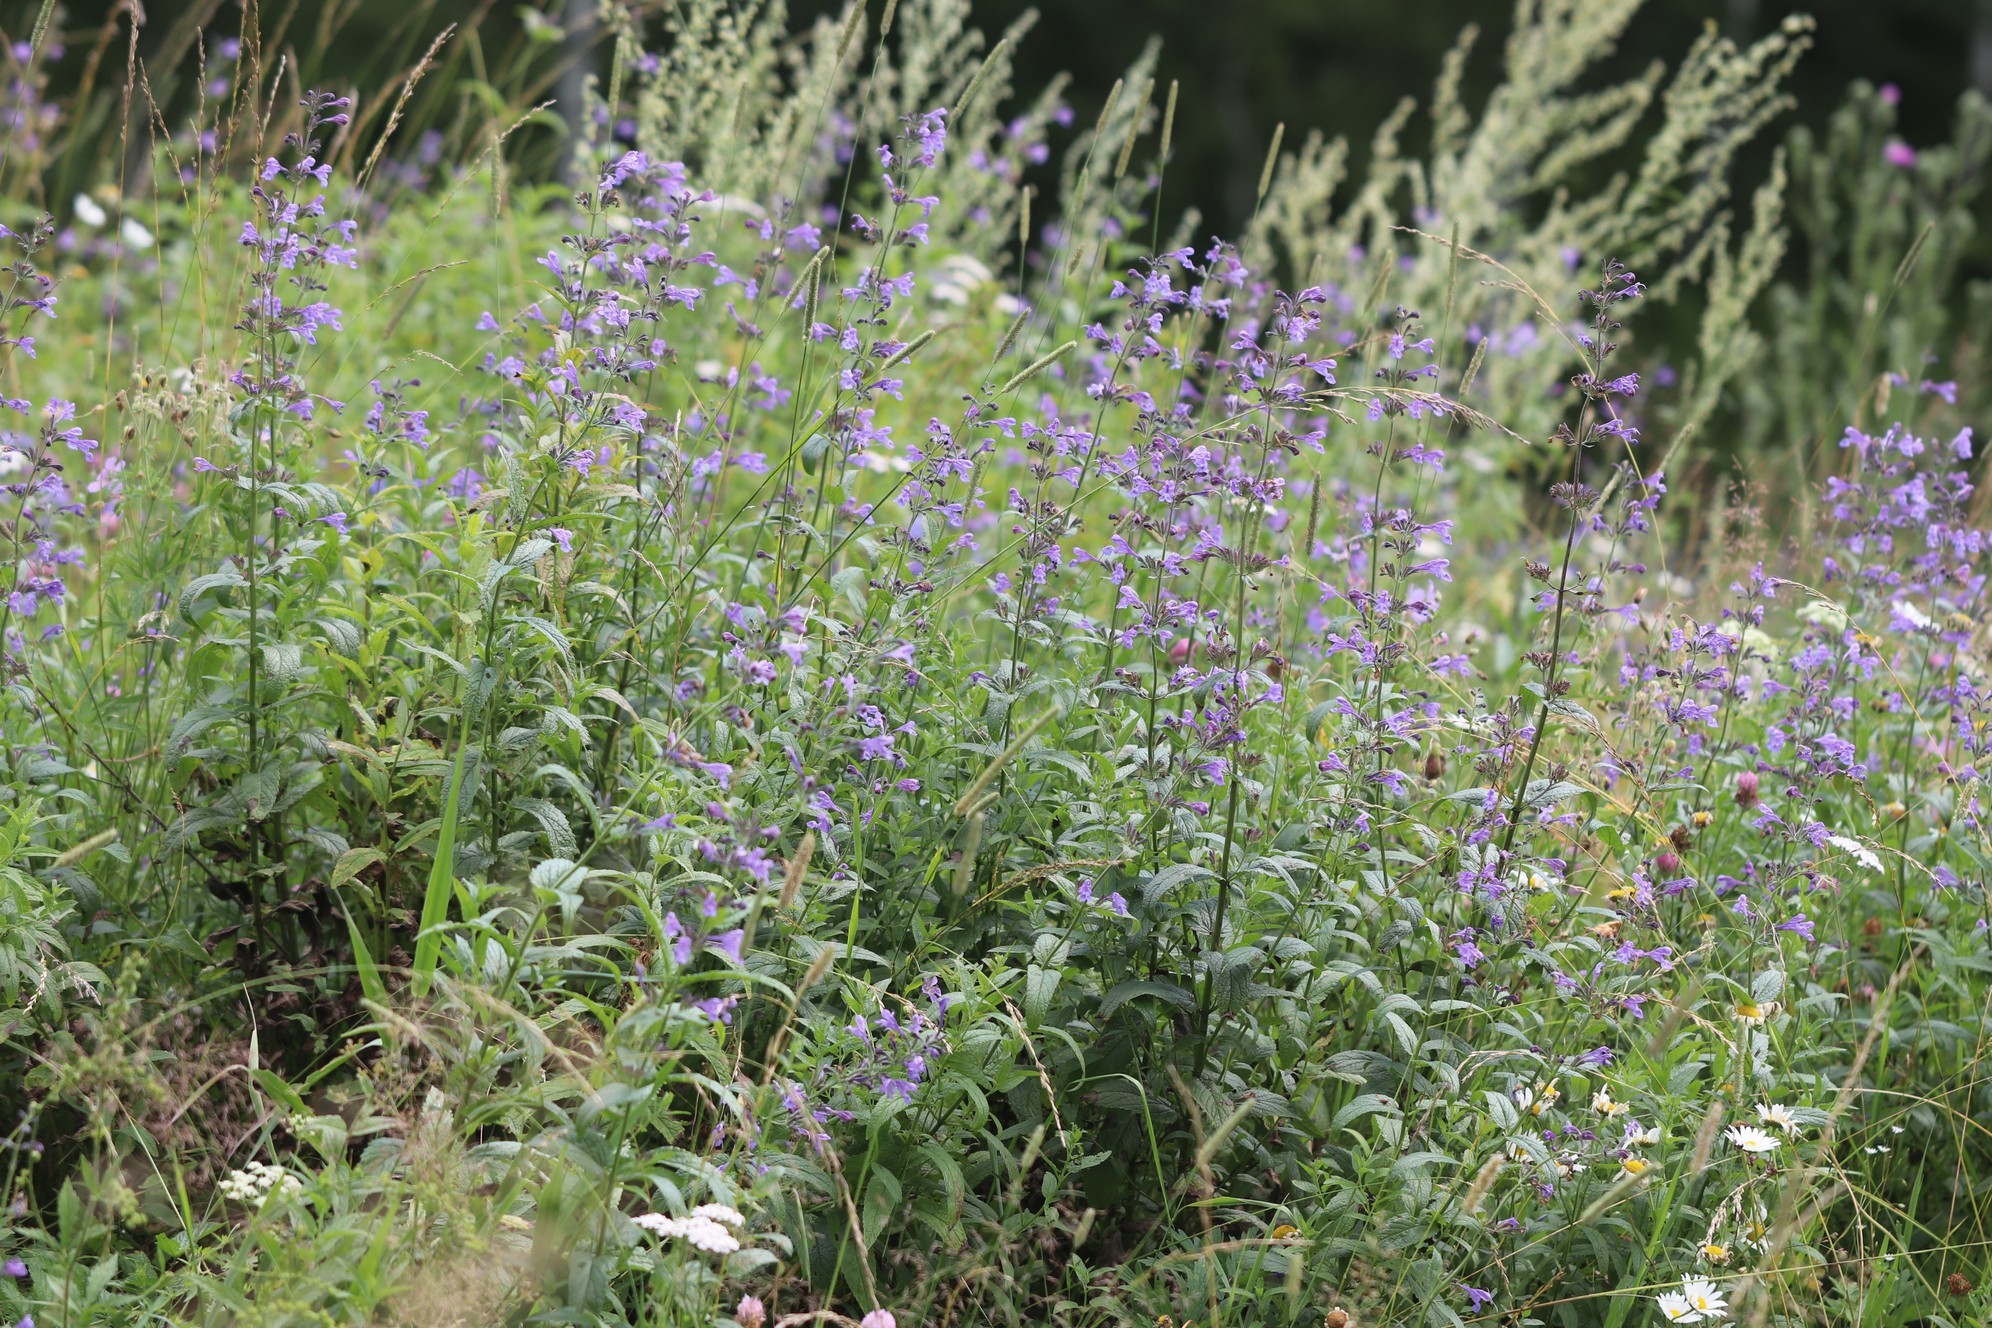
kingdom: Plantae
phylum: Tracheophyta
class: Magnoliopsida
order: Lamiales
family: Lamiaceae
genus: Nepeta
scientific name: Nepeta sibirica
